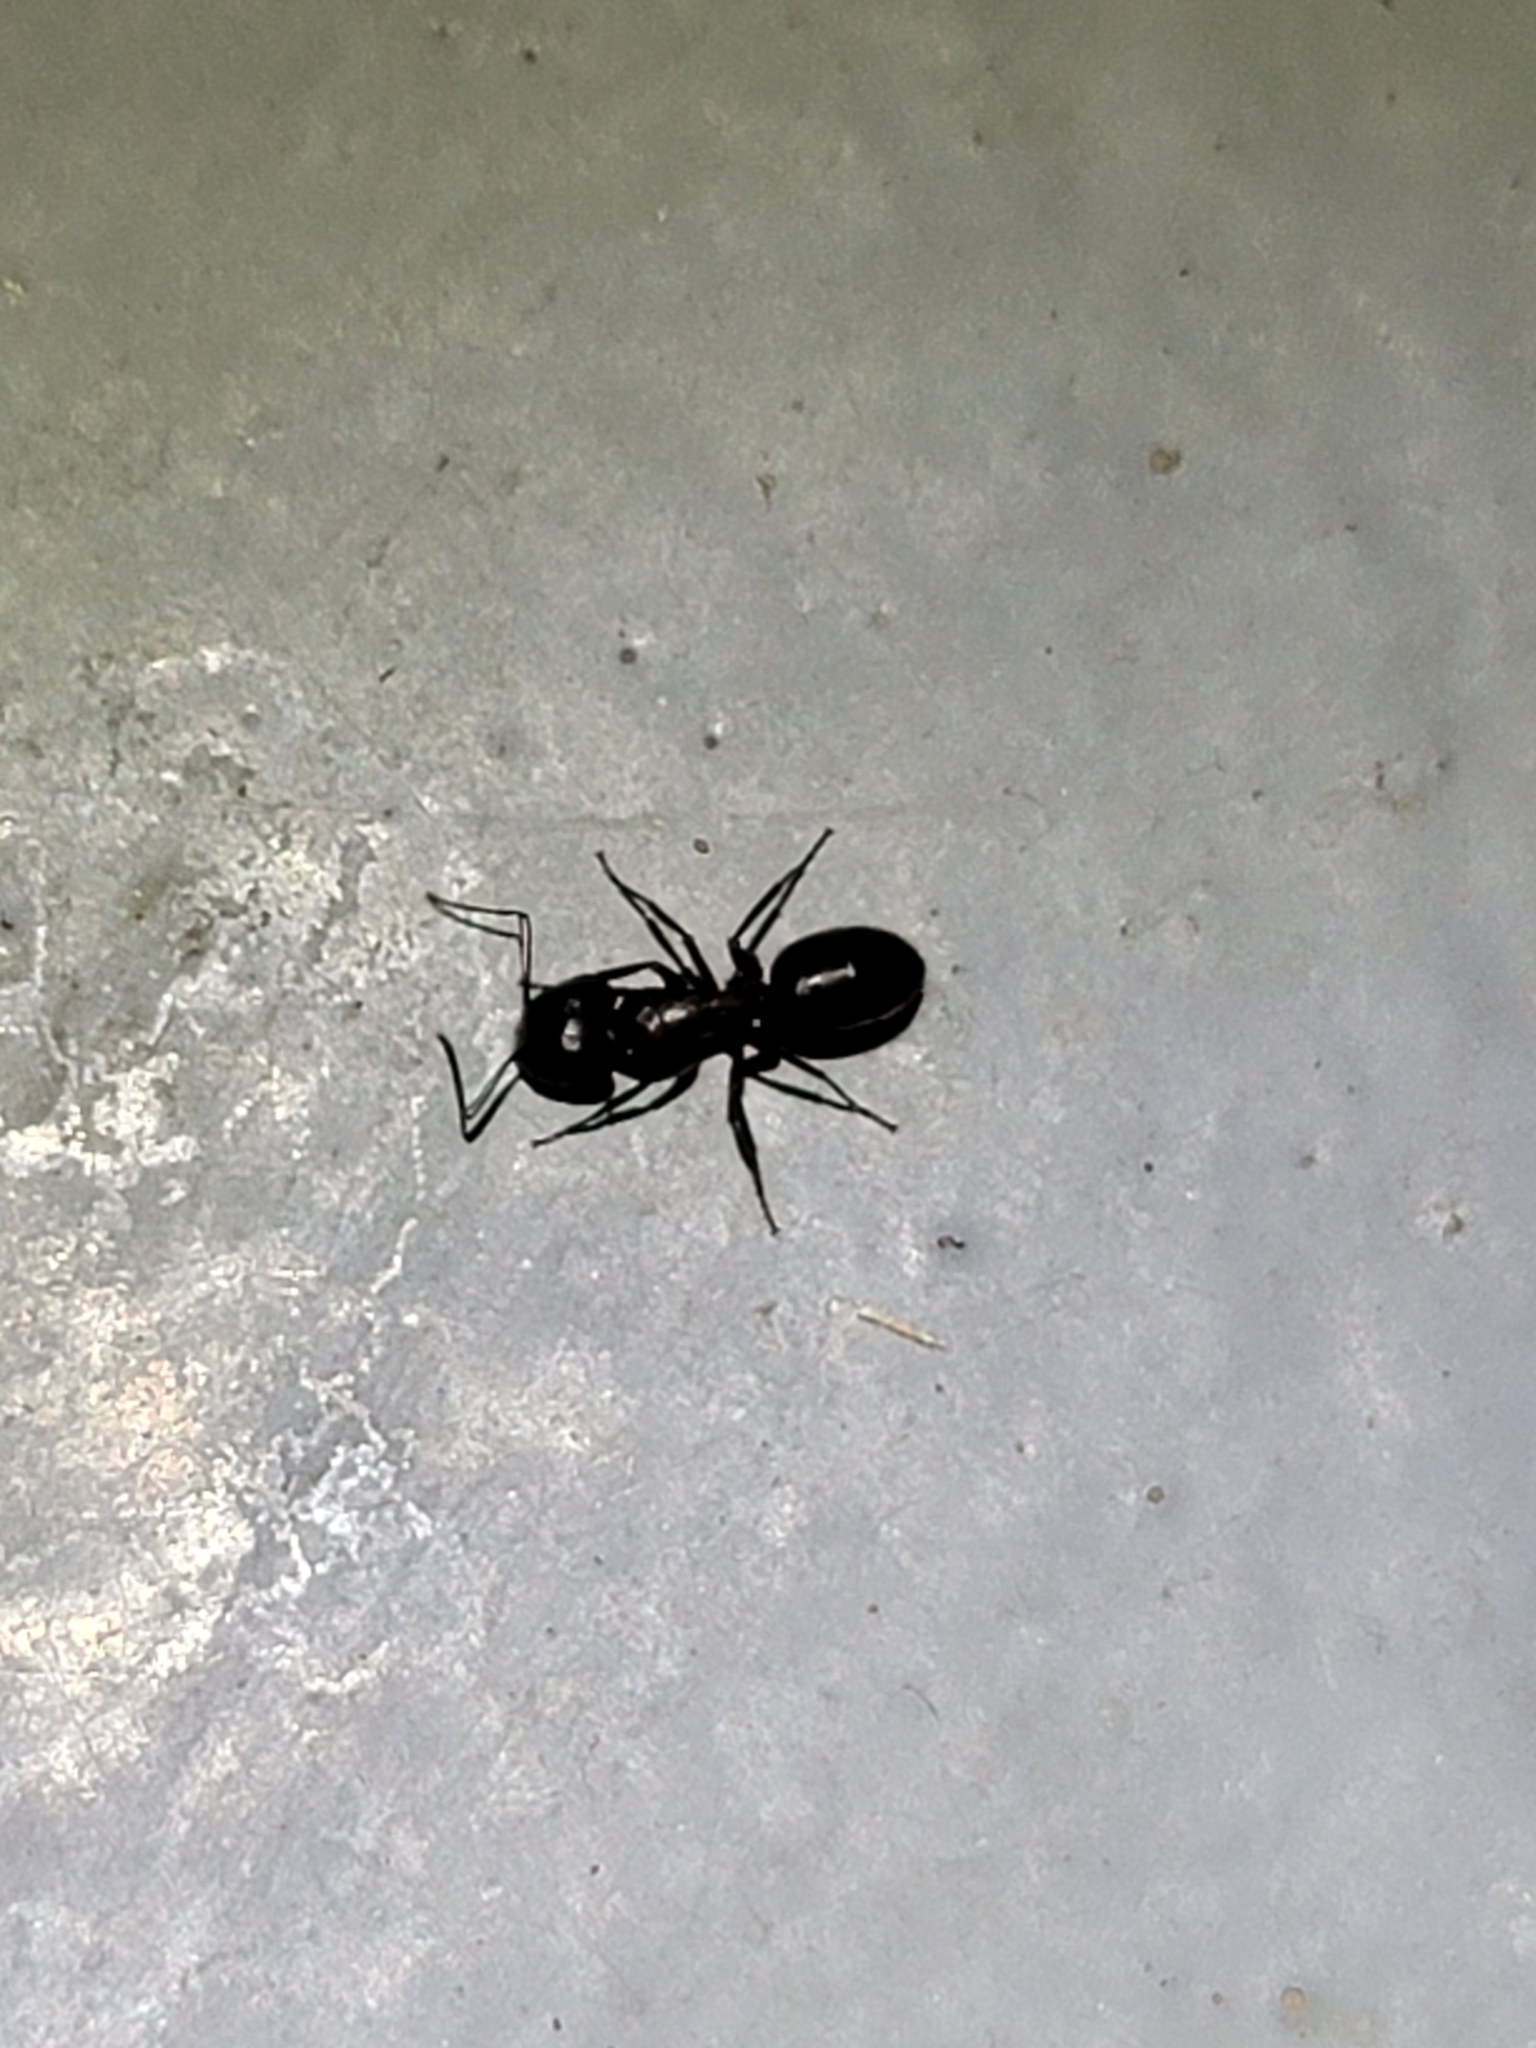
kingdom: Animalia
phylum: Arthropoda
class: Insecta
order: Hymenoptera
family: Formicidae
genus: Camponotus
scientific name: Camponotus vicinus
